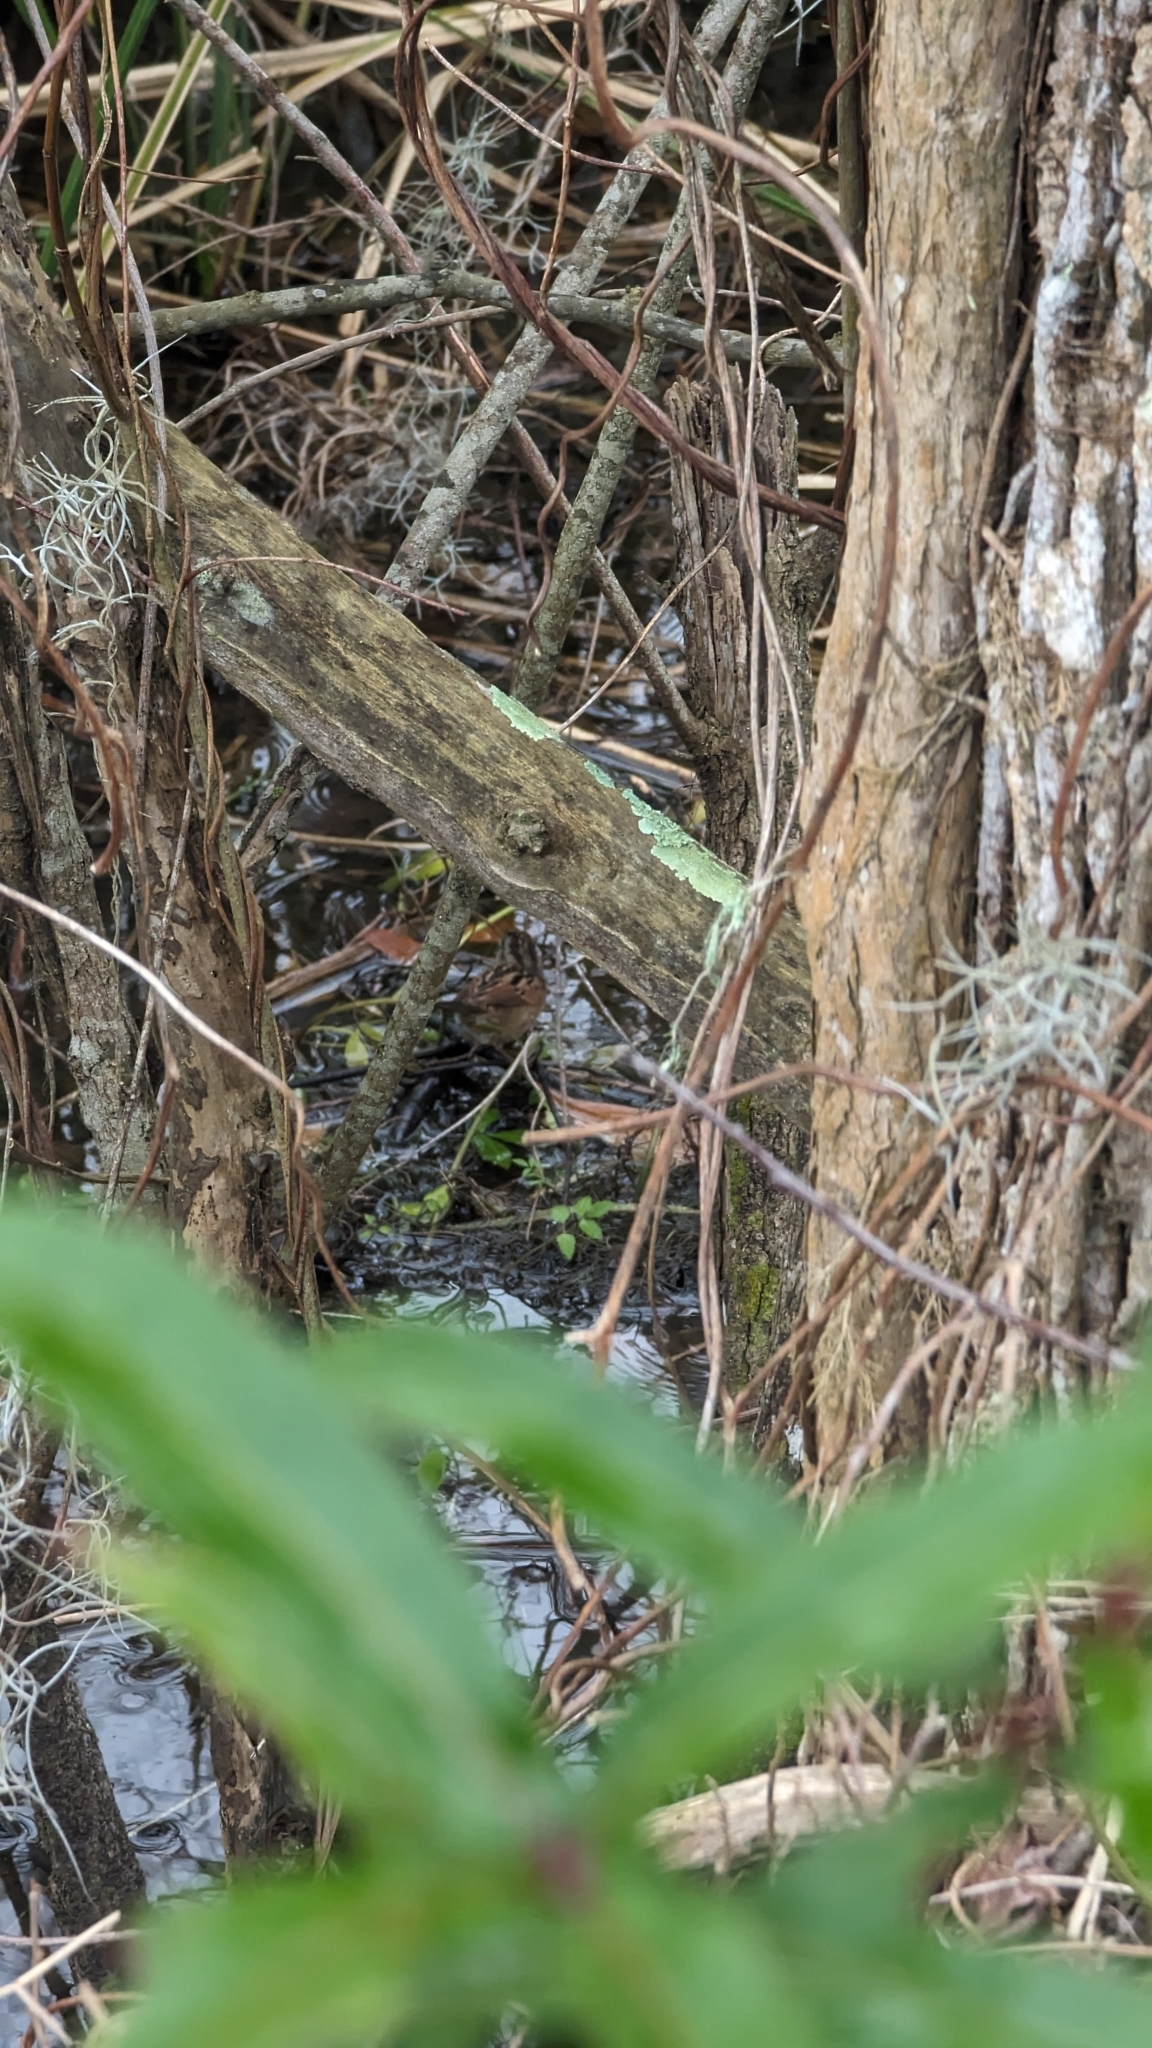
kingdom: Animalia
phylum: Chordata
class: Aves
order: Passeriformes
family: Passerellidae
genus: Melospiza
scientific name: Melospiza georgiana
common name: Swamp sparrow
